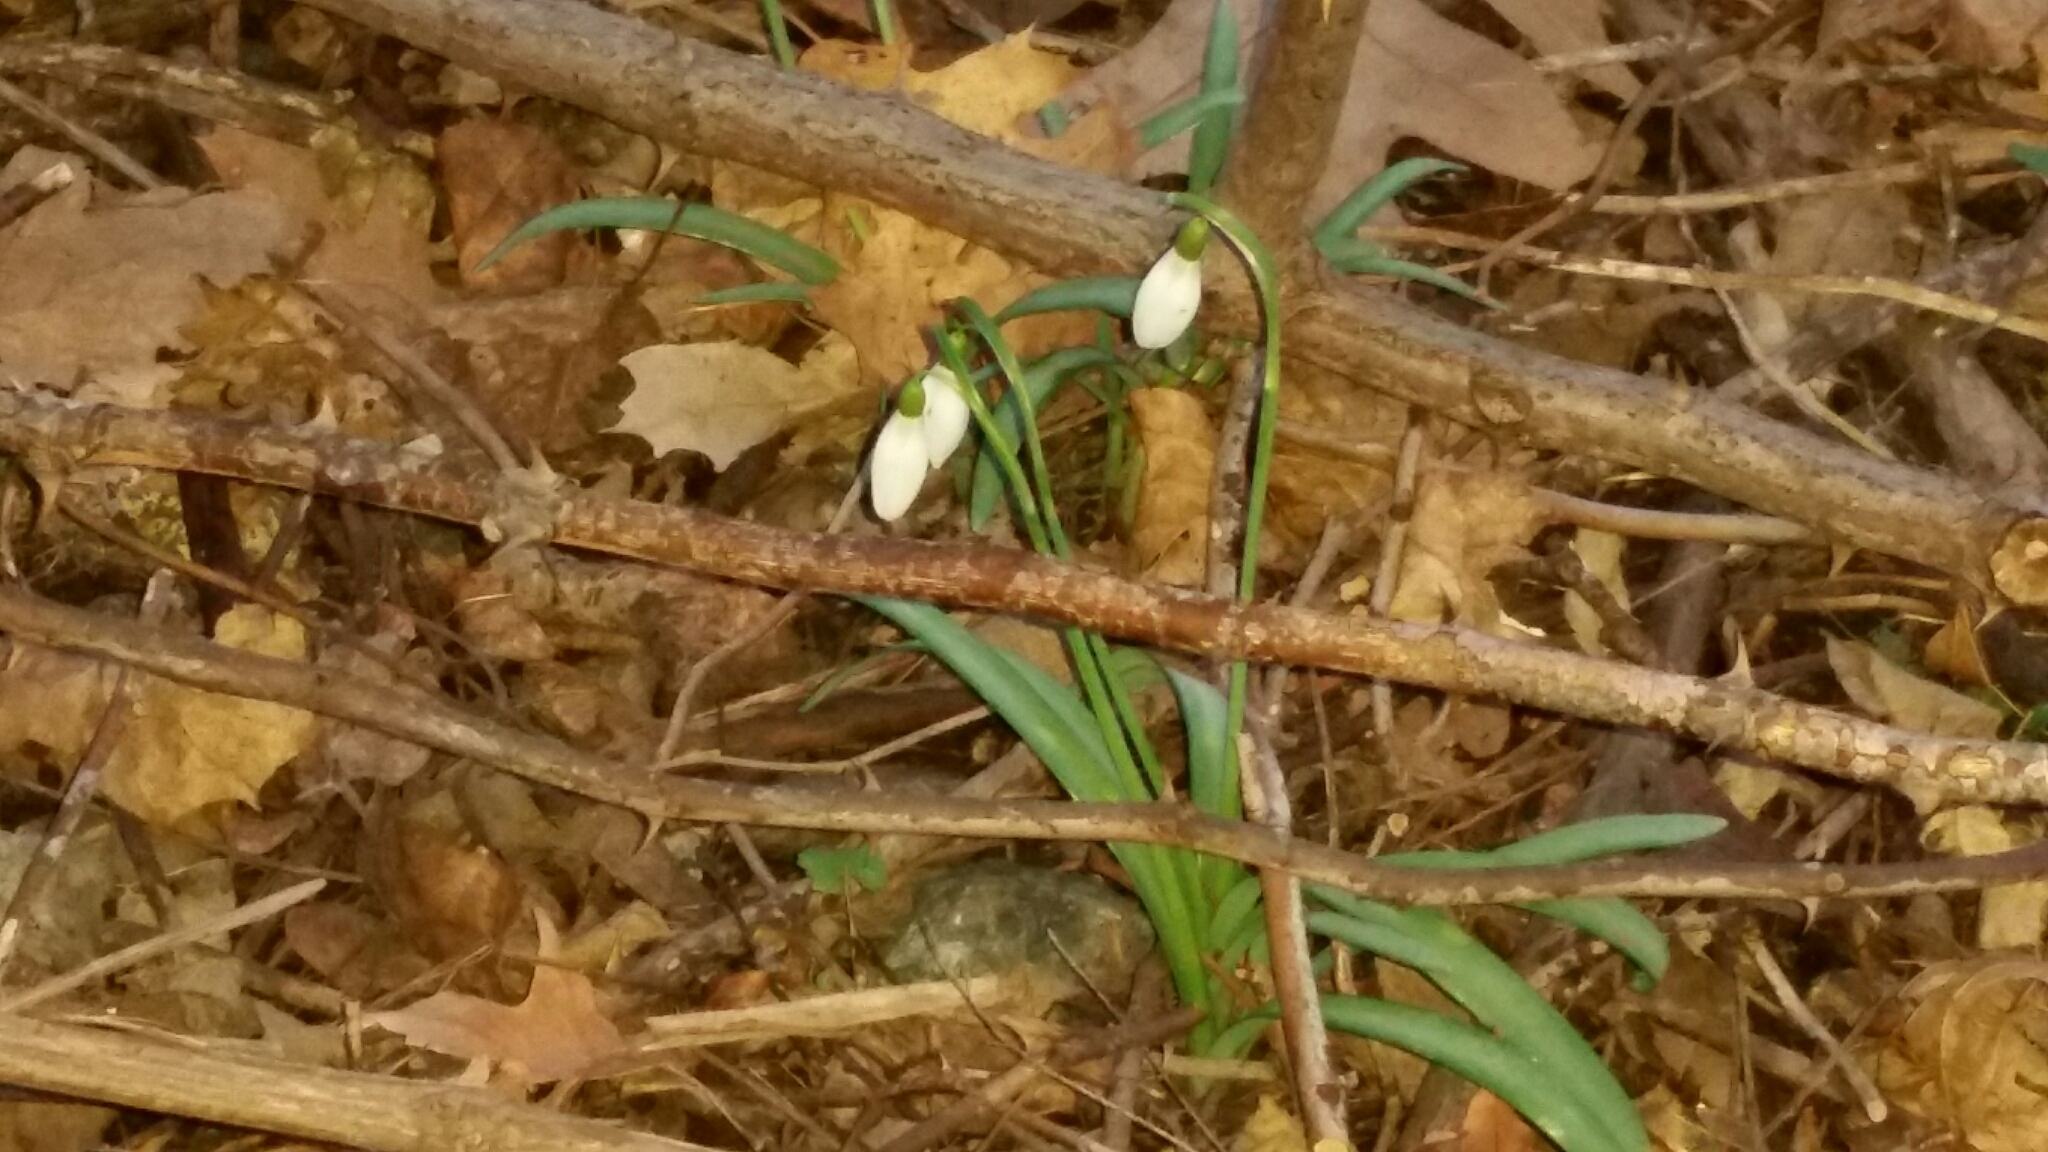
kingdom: Plantae
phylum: Tracheophyta
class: Liliopsida
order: Asparagales
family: Amaryllidaceae
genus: Galanthus
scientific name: Galanthus nivalis
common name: Snowdrop
